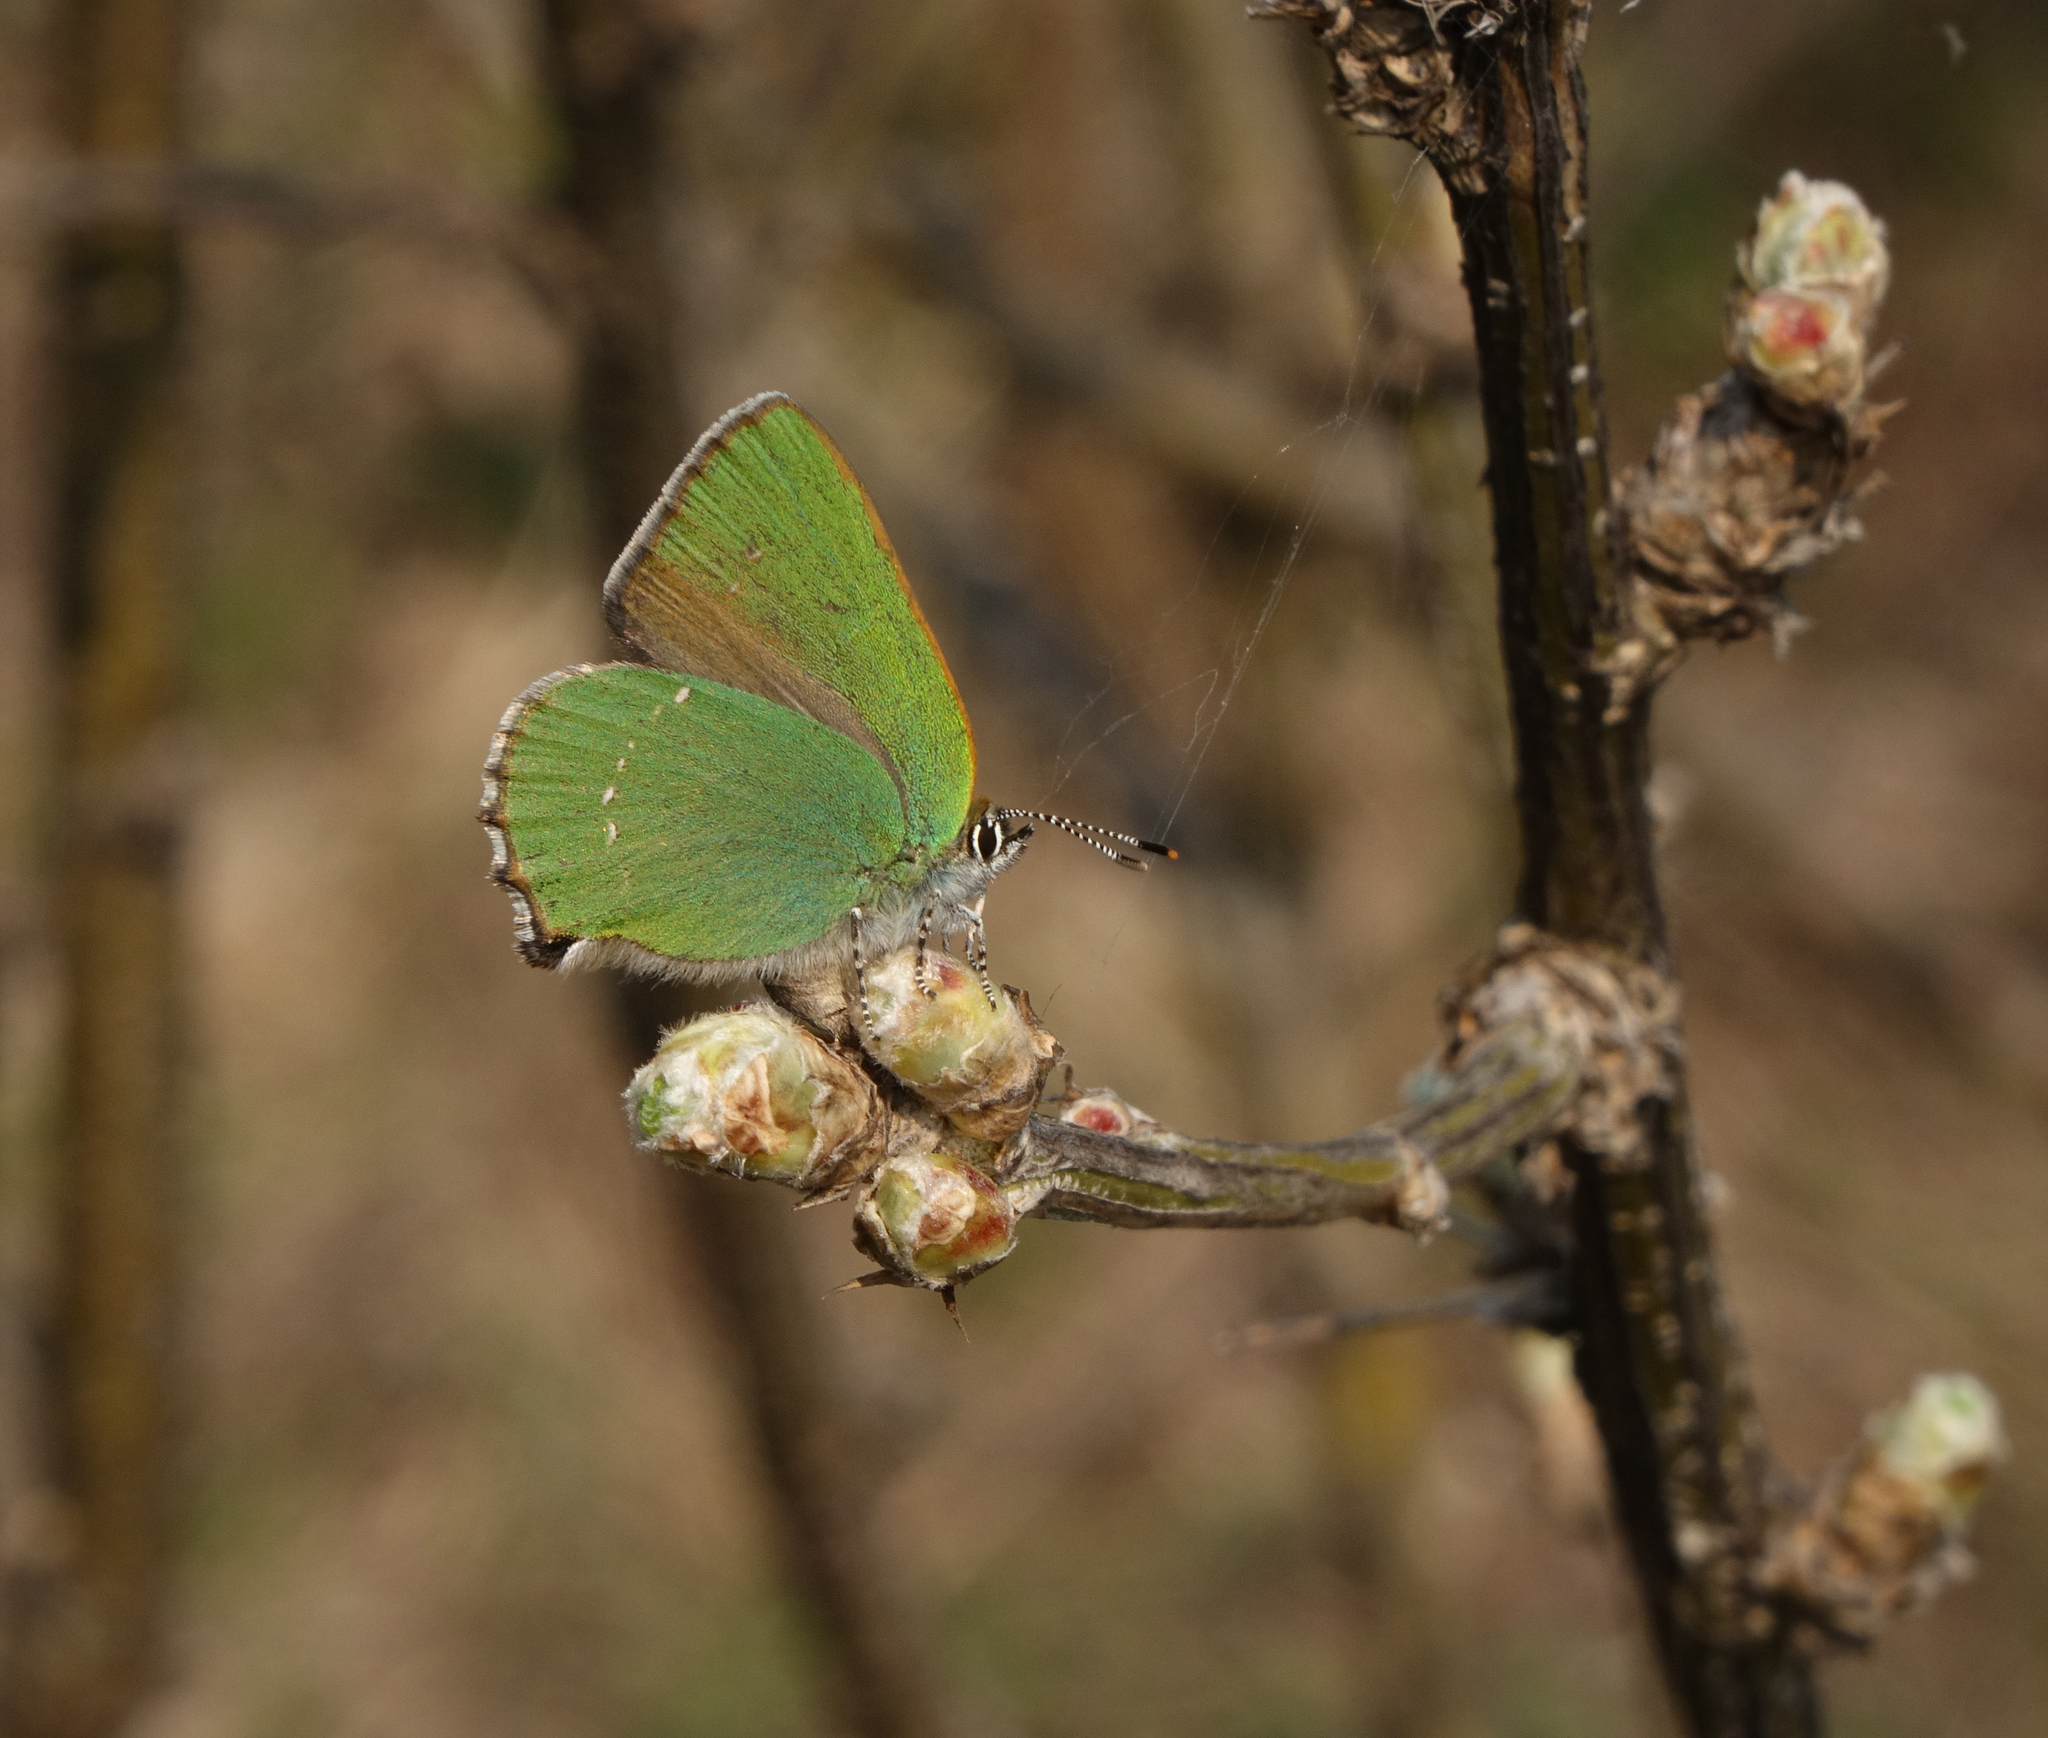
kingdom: Plantae
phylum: Tracheophyta
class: Magnoliopsida
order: Fabales
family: Fabaceae
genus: Caragana
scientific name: Caragana arborescens
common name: Siberian peashrub
